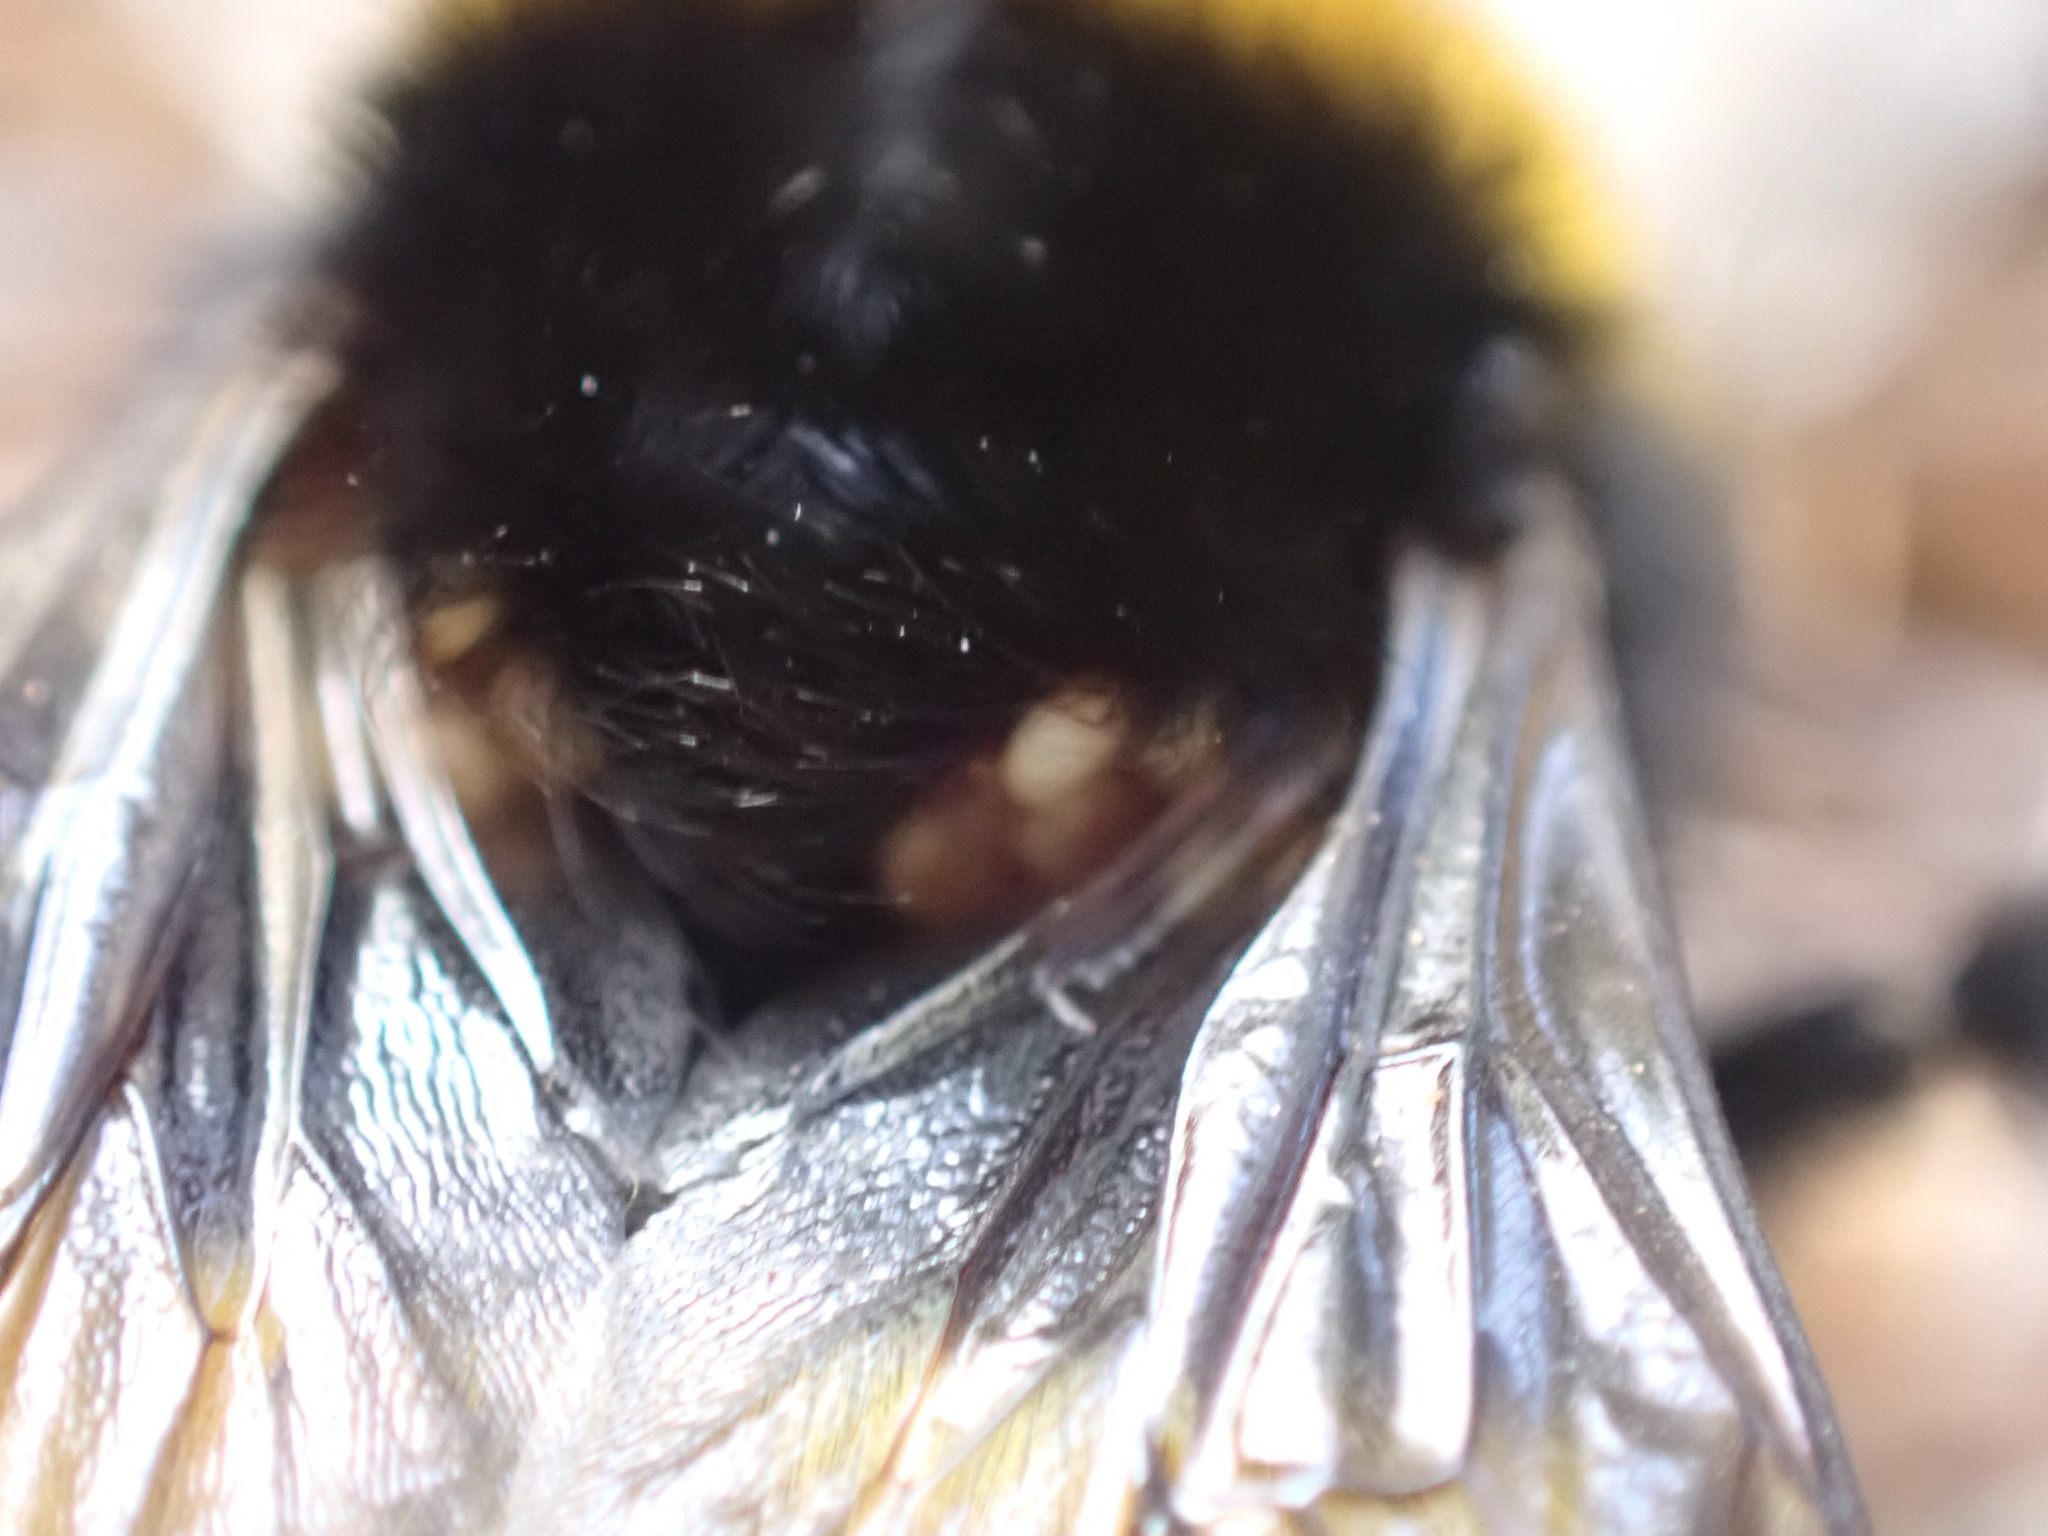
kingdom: Animalia
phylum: Arthropoda
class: Arachnida
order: Mesostigmata
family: Parasitidae
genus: Parasitellus
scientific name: Parasitellus
